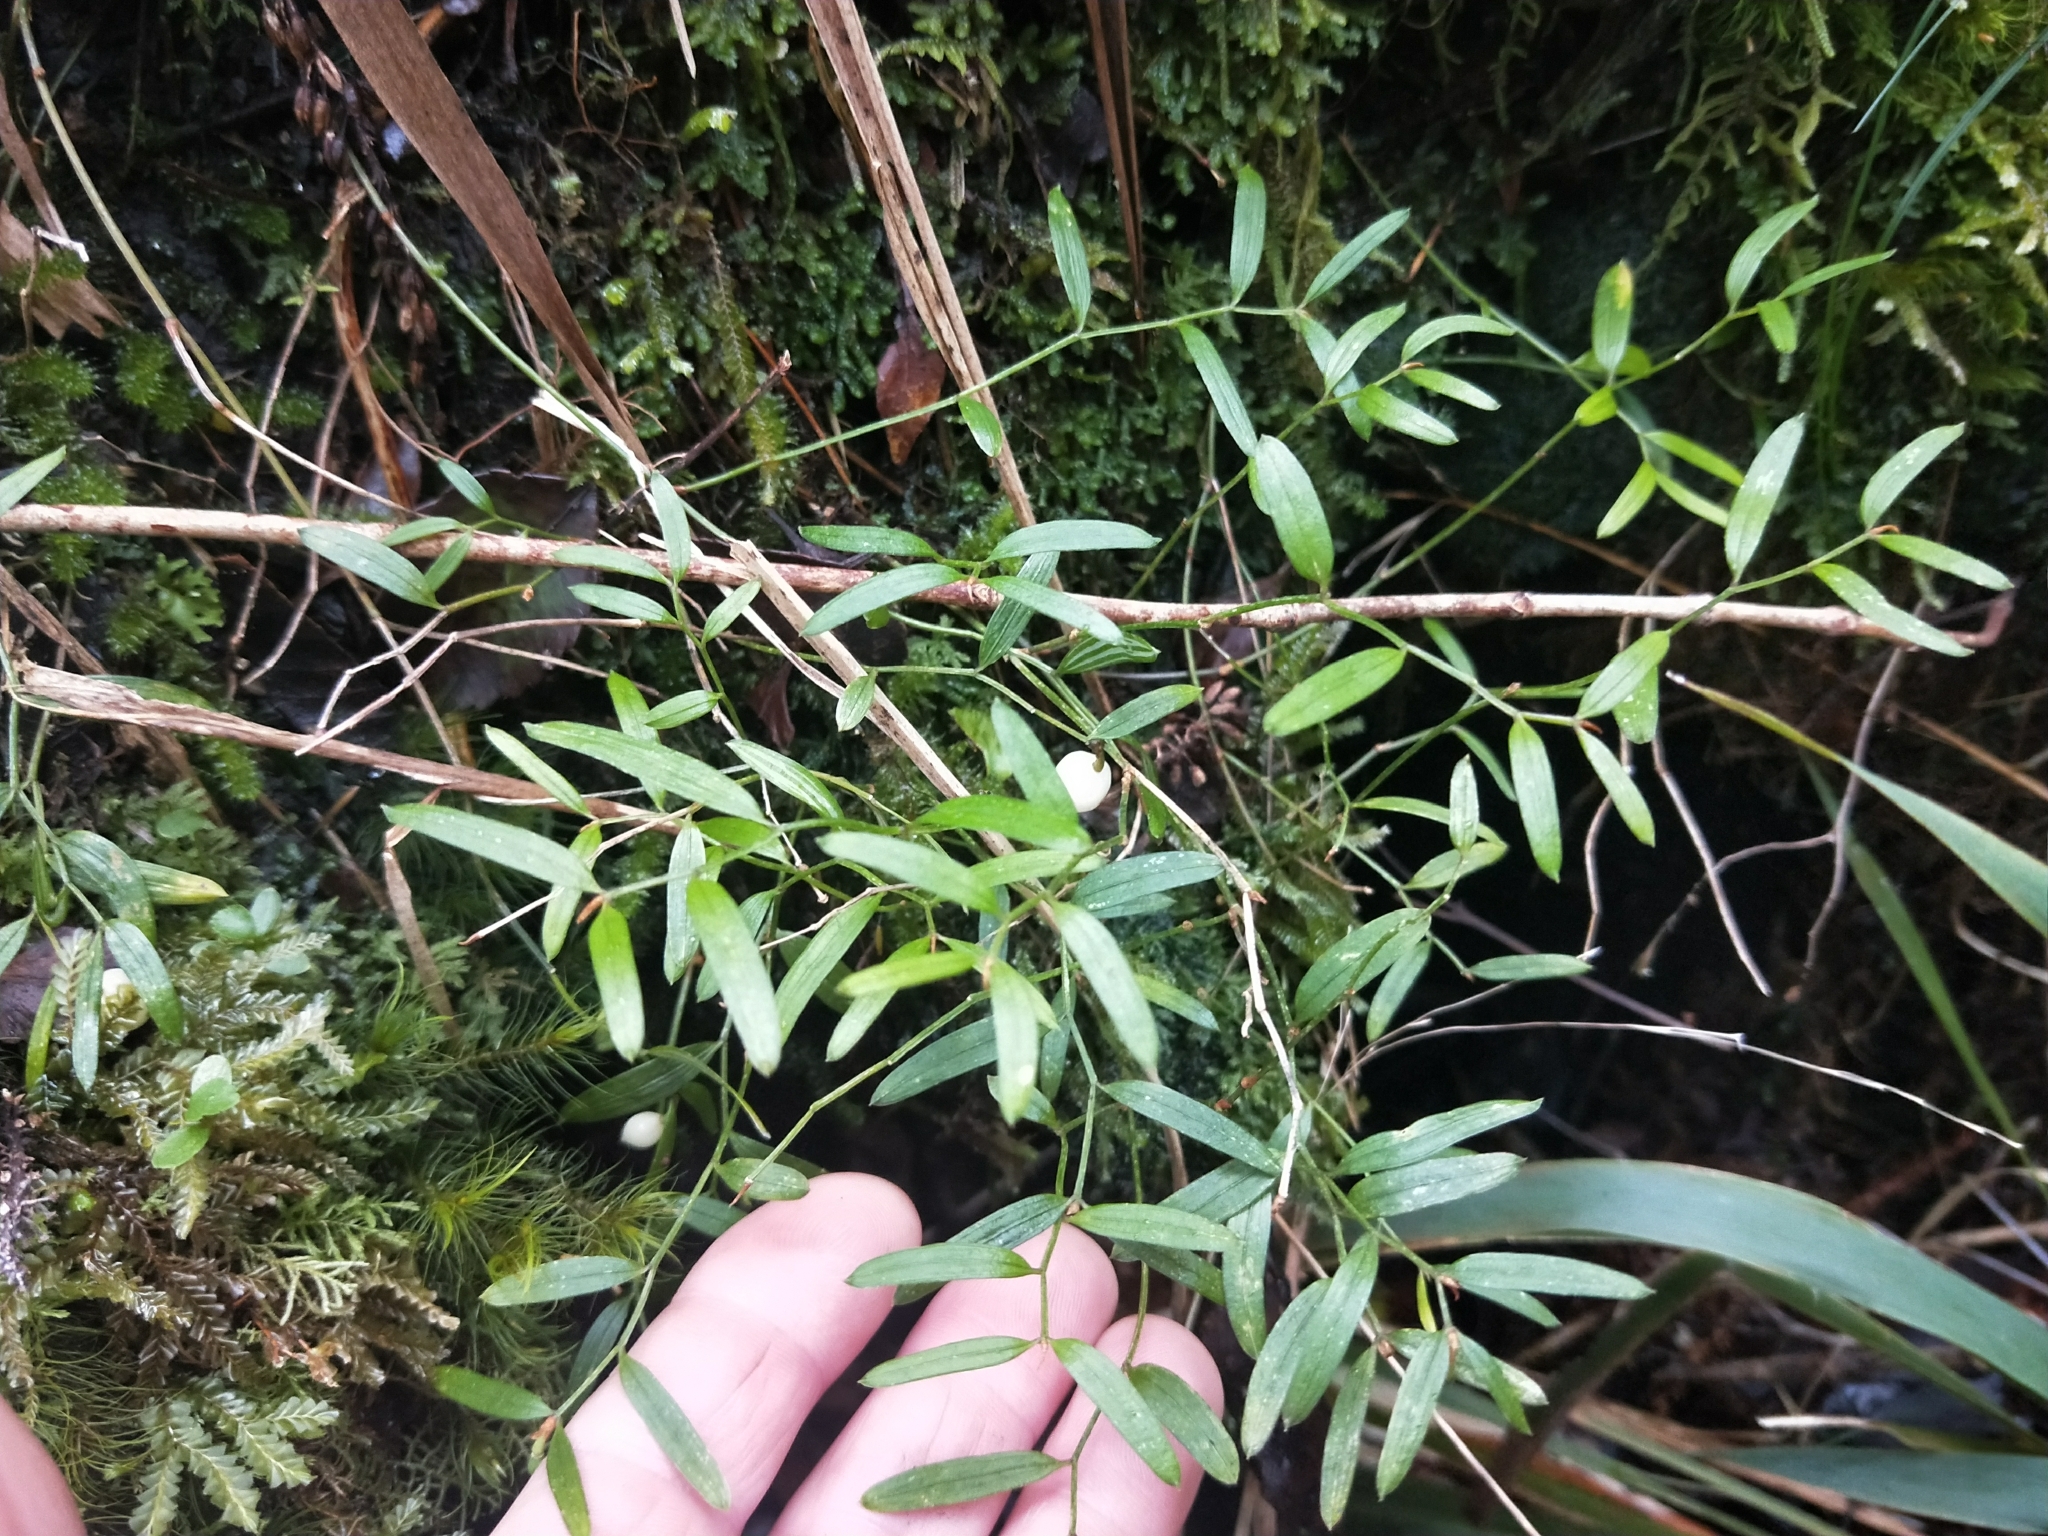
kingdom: Plantae
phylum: Tracheophyta
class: Liliopsida
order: Liliales
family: Alstroemeriaceae
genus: Luzuriaga
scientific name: Luzuriaga parviflora
